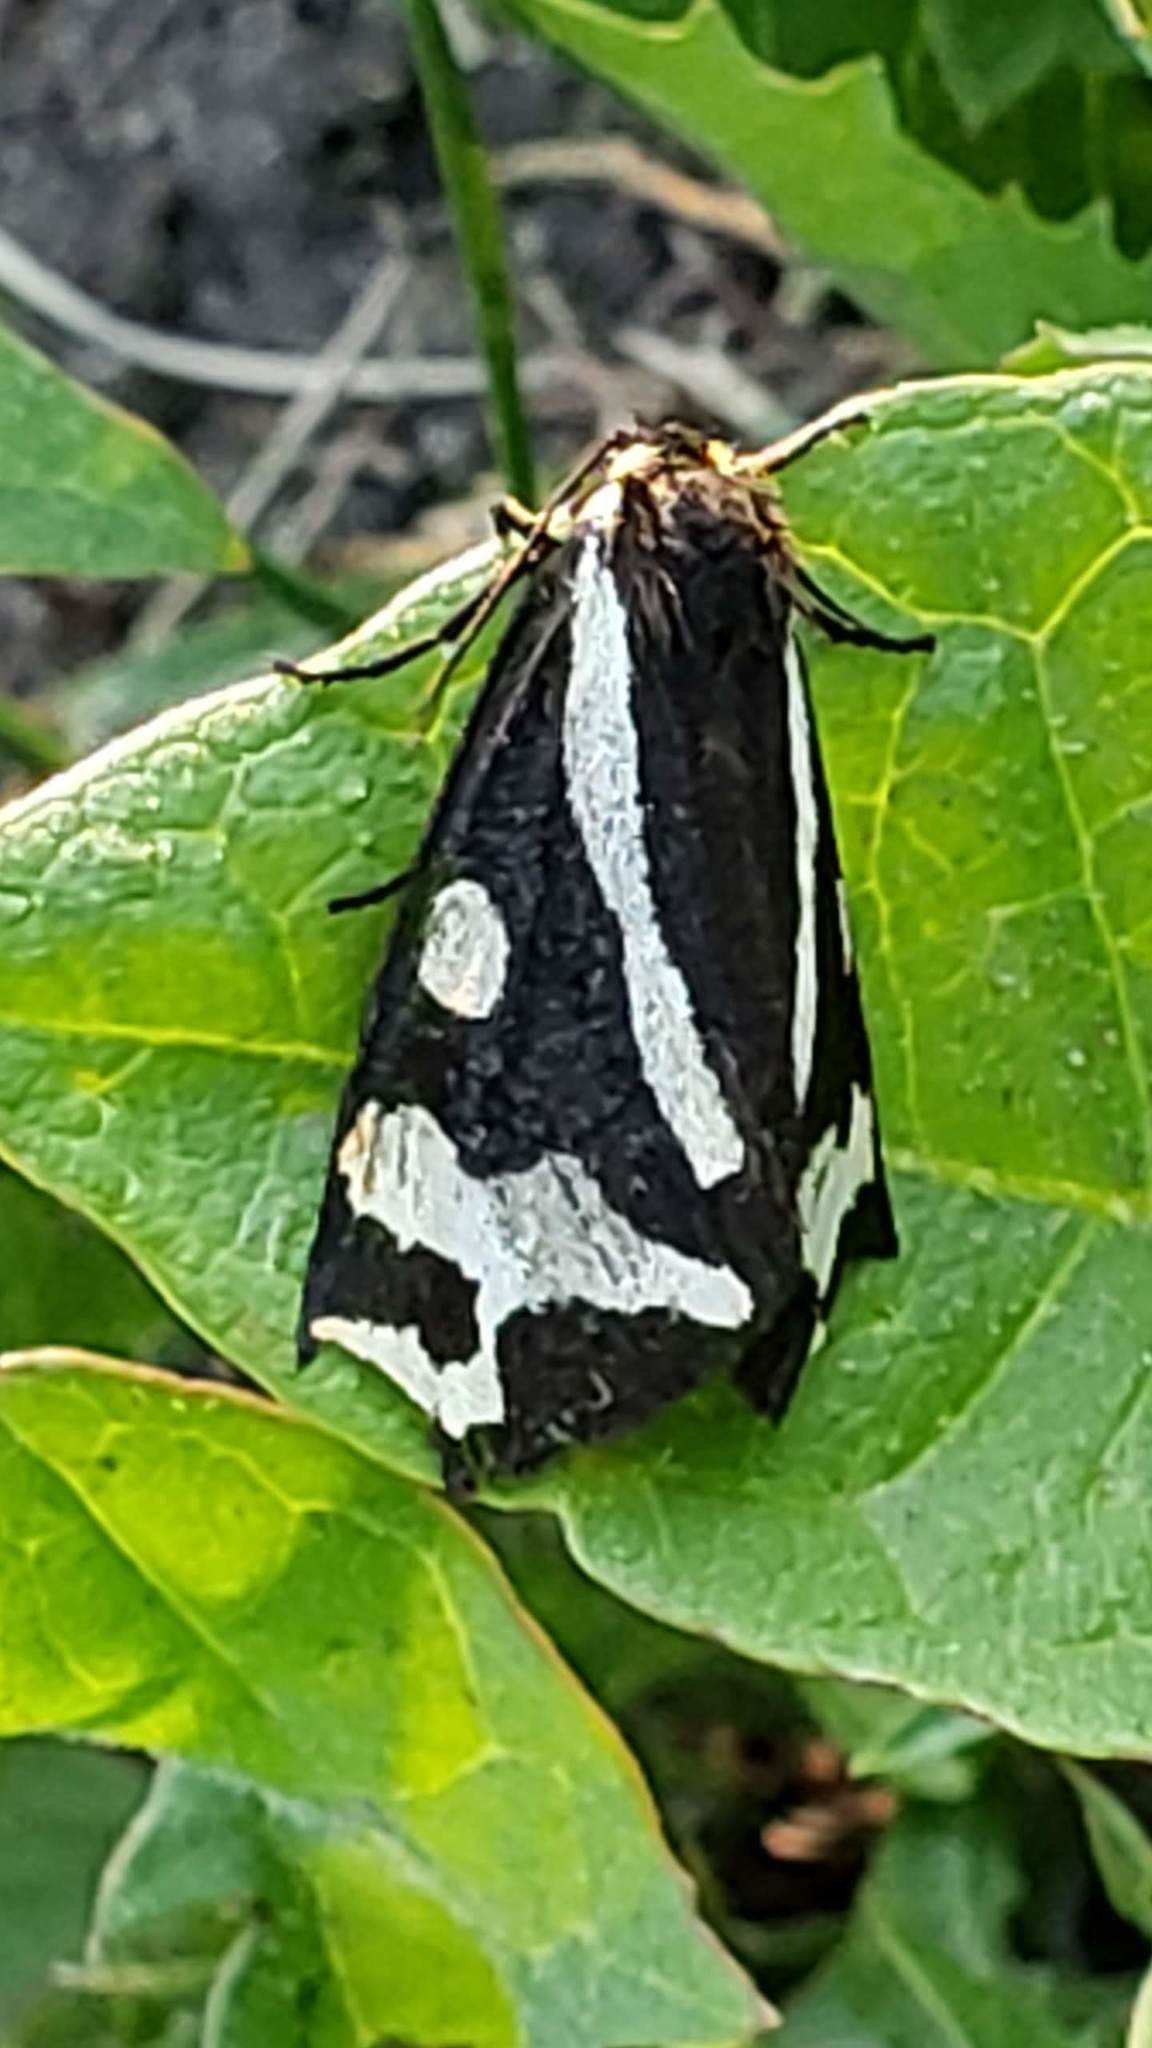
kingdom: Animalia
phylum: Arthropoda
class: Insecta
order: Lepidoptera
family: Erebidae
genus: Parasemia
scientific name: Parasemia plantaginis
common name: Wood tiger
